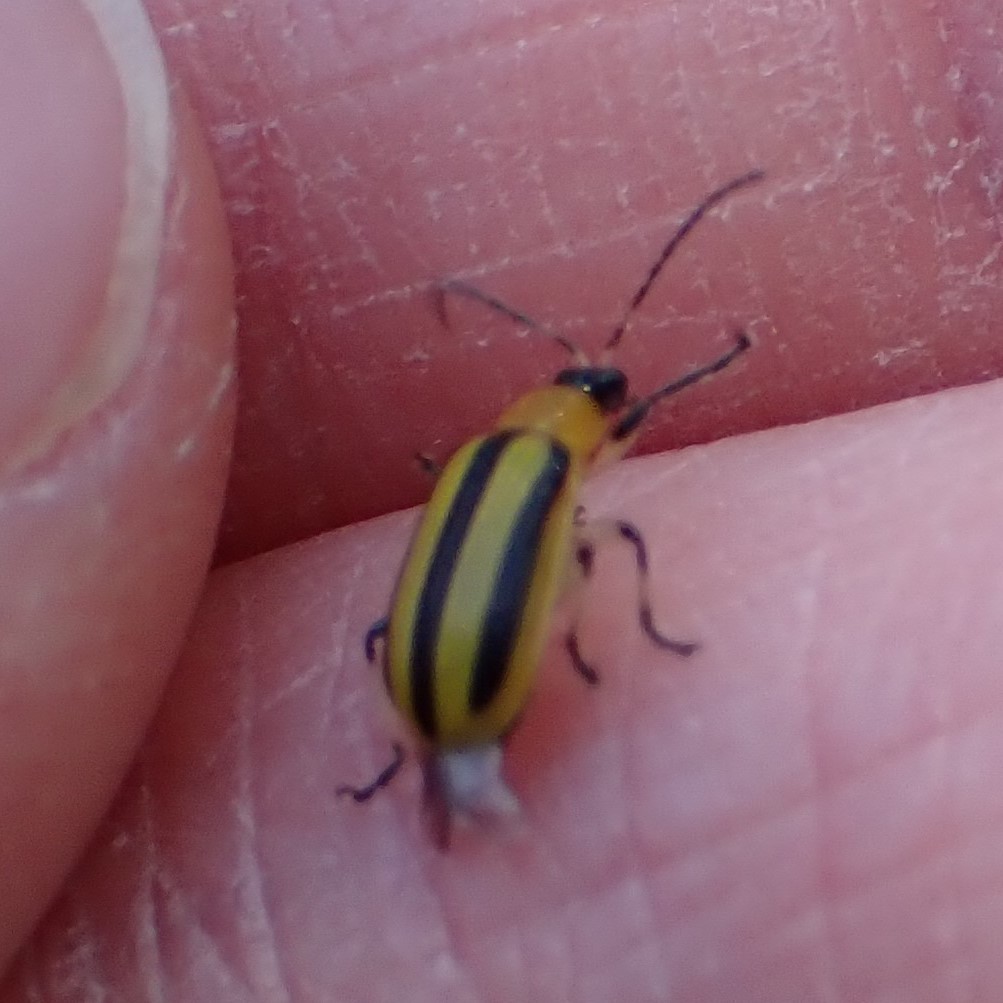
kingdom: Animalia
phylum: Arthropoda
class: Insecta
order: Coleoptera
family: Chrysomelidae
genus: Acalymma
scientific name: Acalymma vittatum
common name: Striped cucumber beetle
